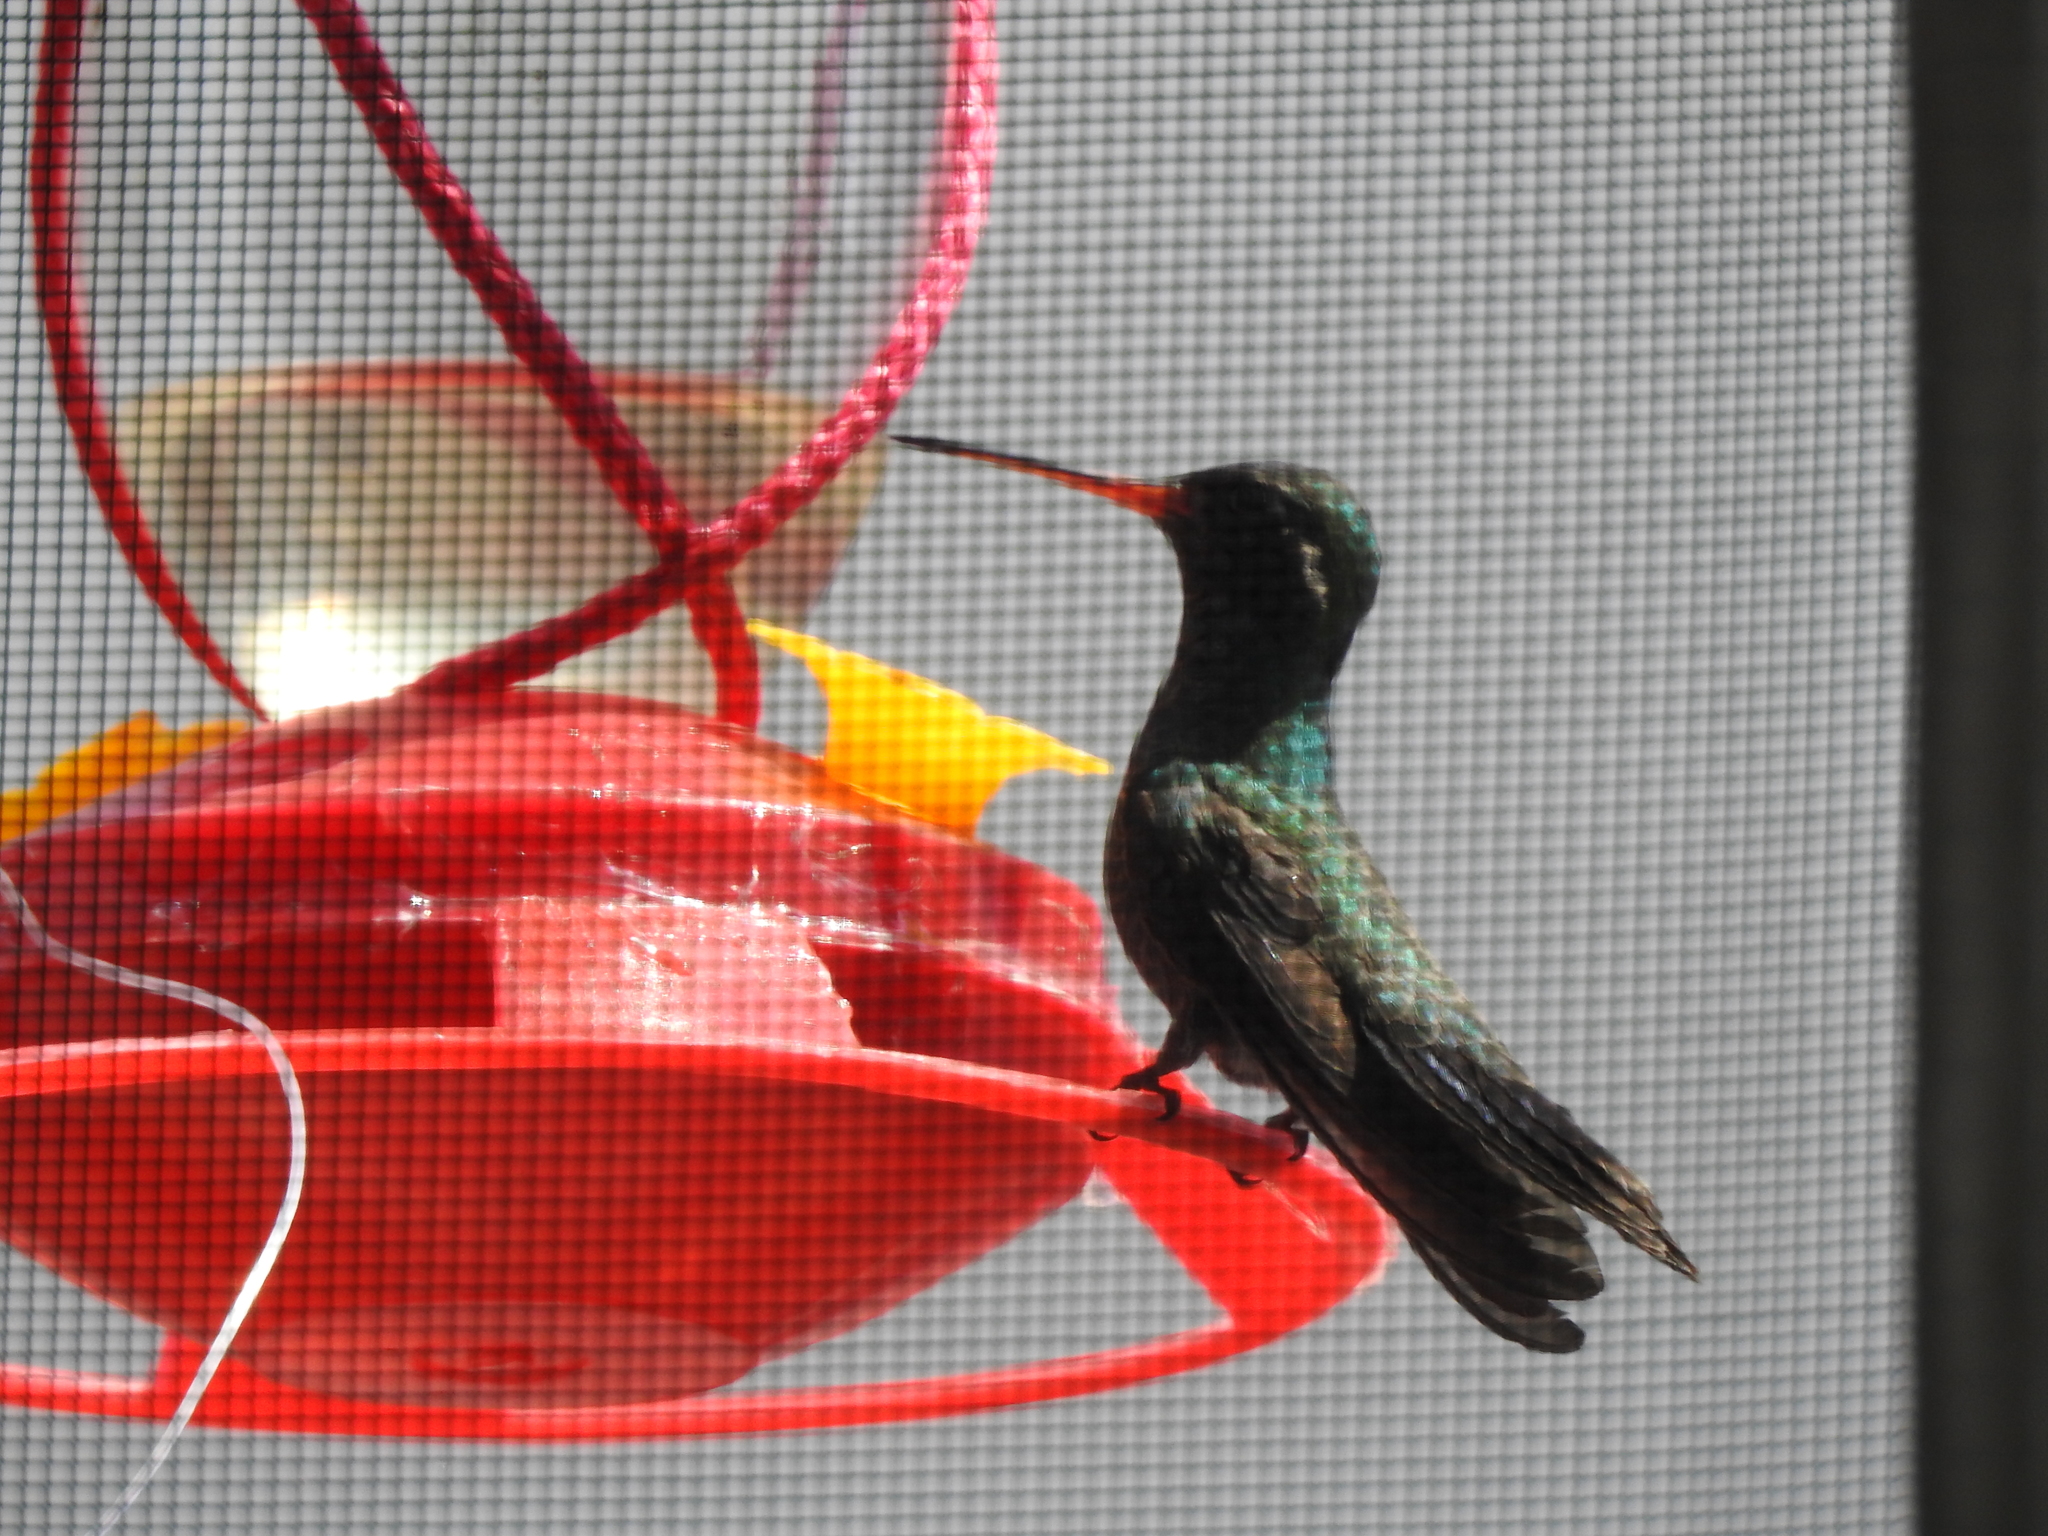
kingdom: Animalia
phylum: Chordata
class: Aves
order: Apodiformes
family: Trochilidae
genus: Cynanthus
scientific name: Cynanthus latirostris
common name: Broad-billed hummingbird
